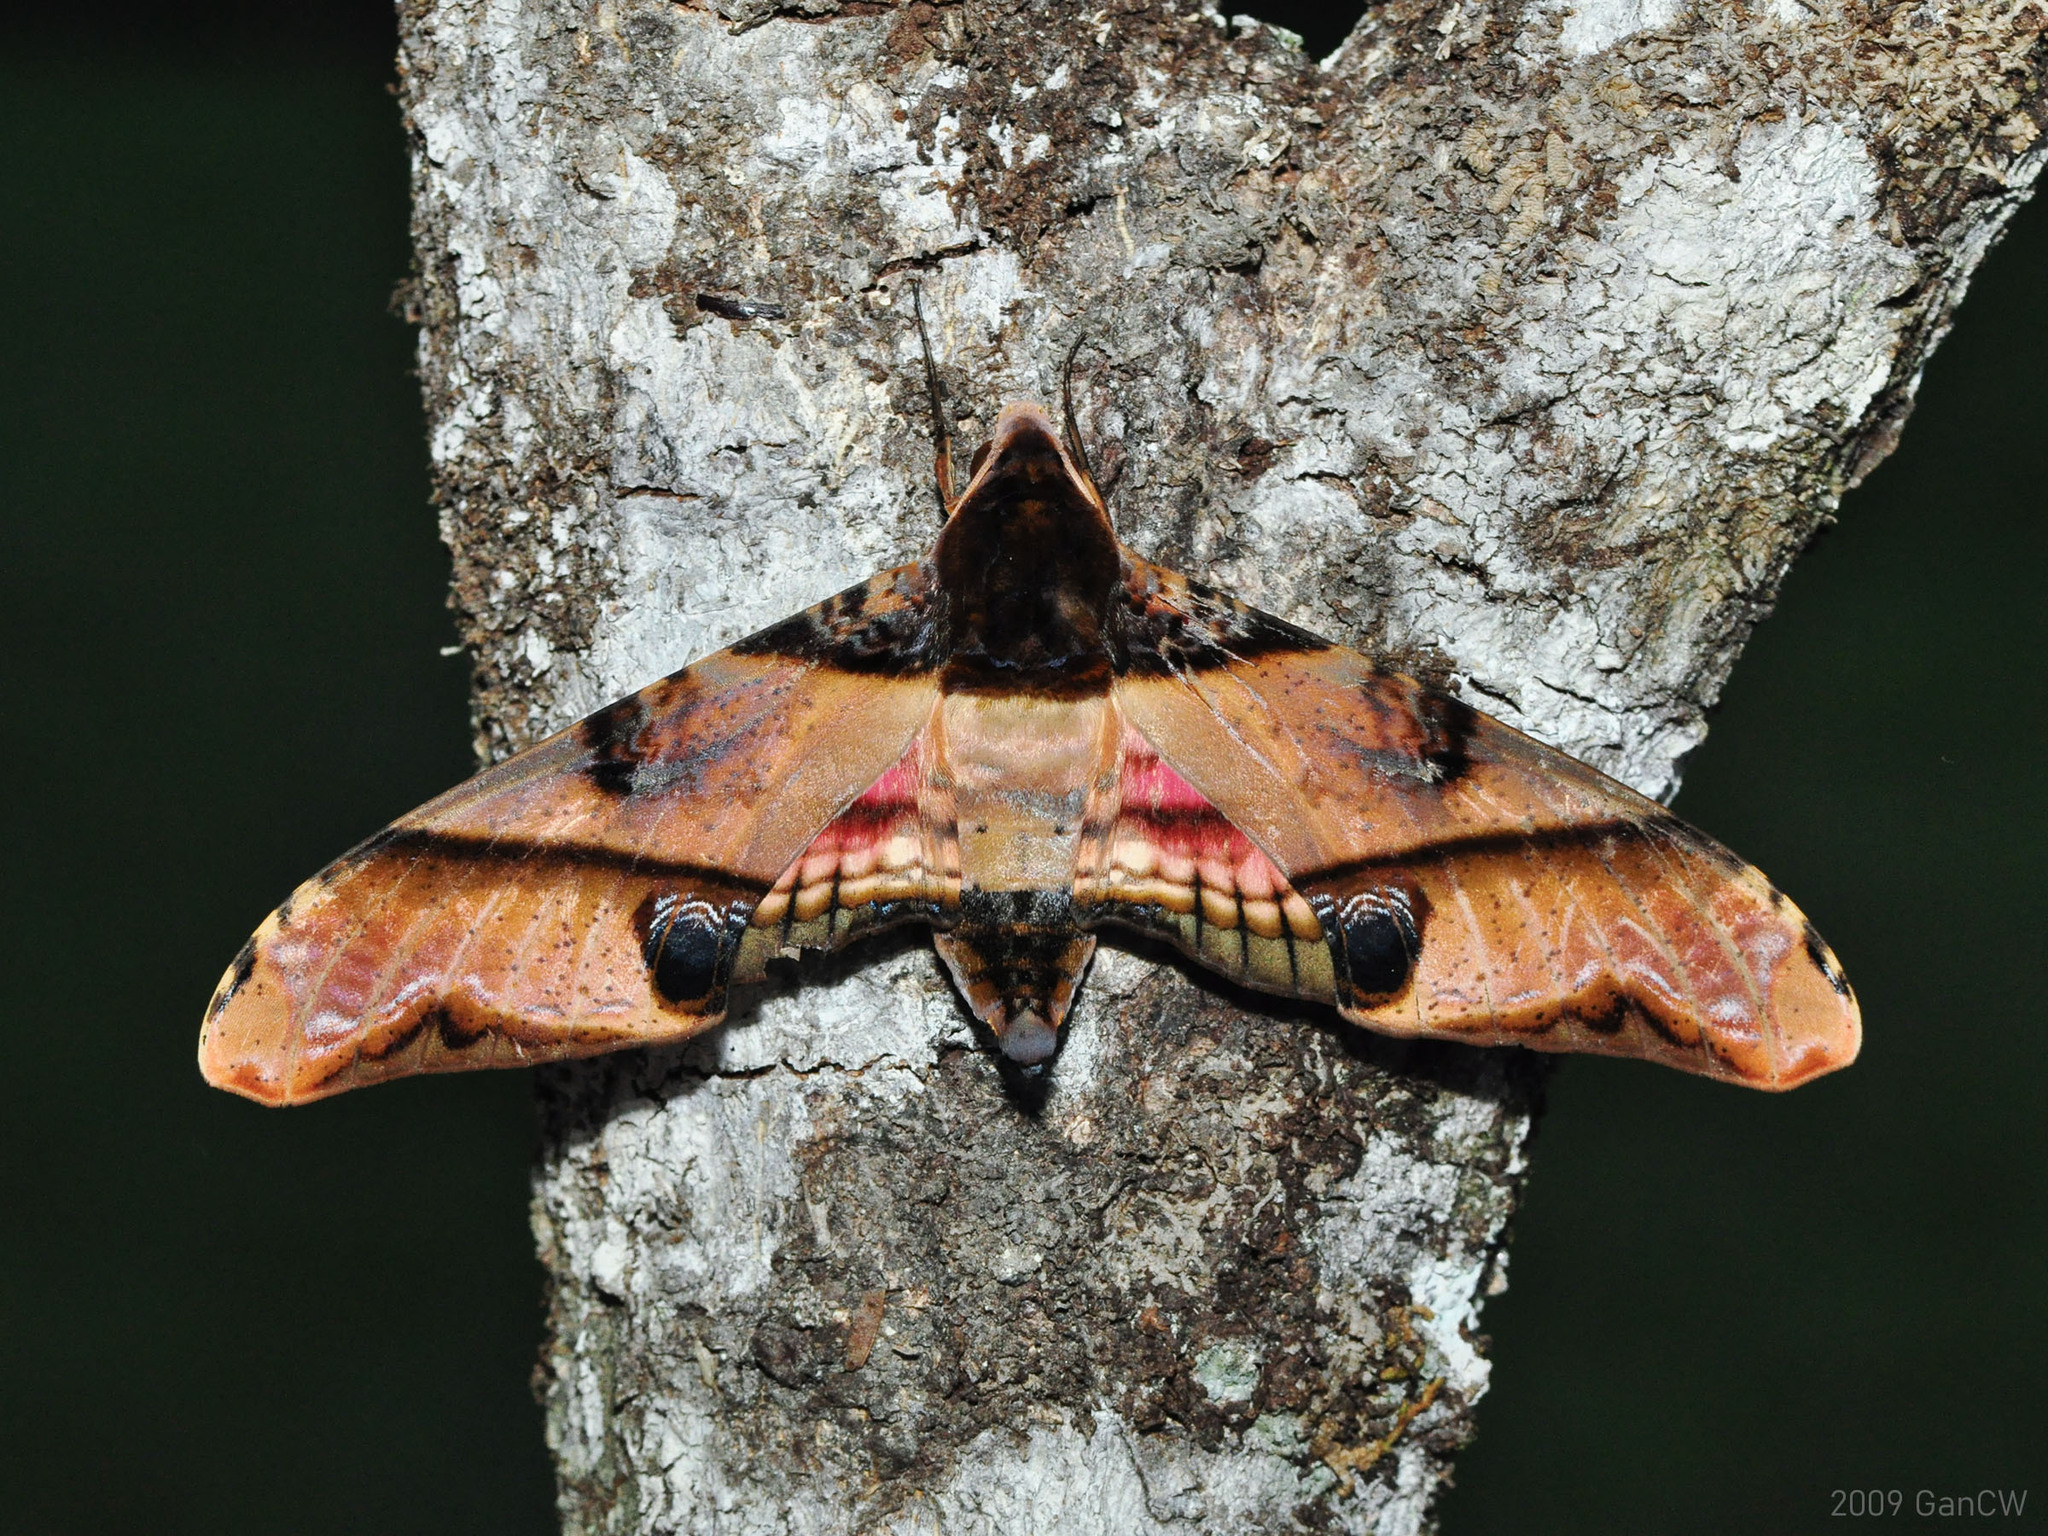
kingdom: Animalia
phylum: Arthropoda
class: Insecta
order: Lepidoptera
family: Sphingidae
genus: Amplypterus
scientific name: Amplypterus panopus
